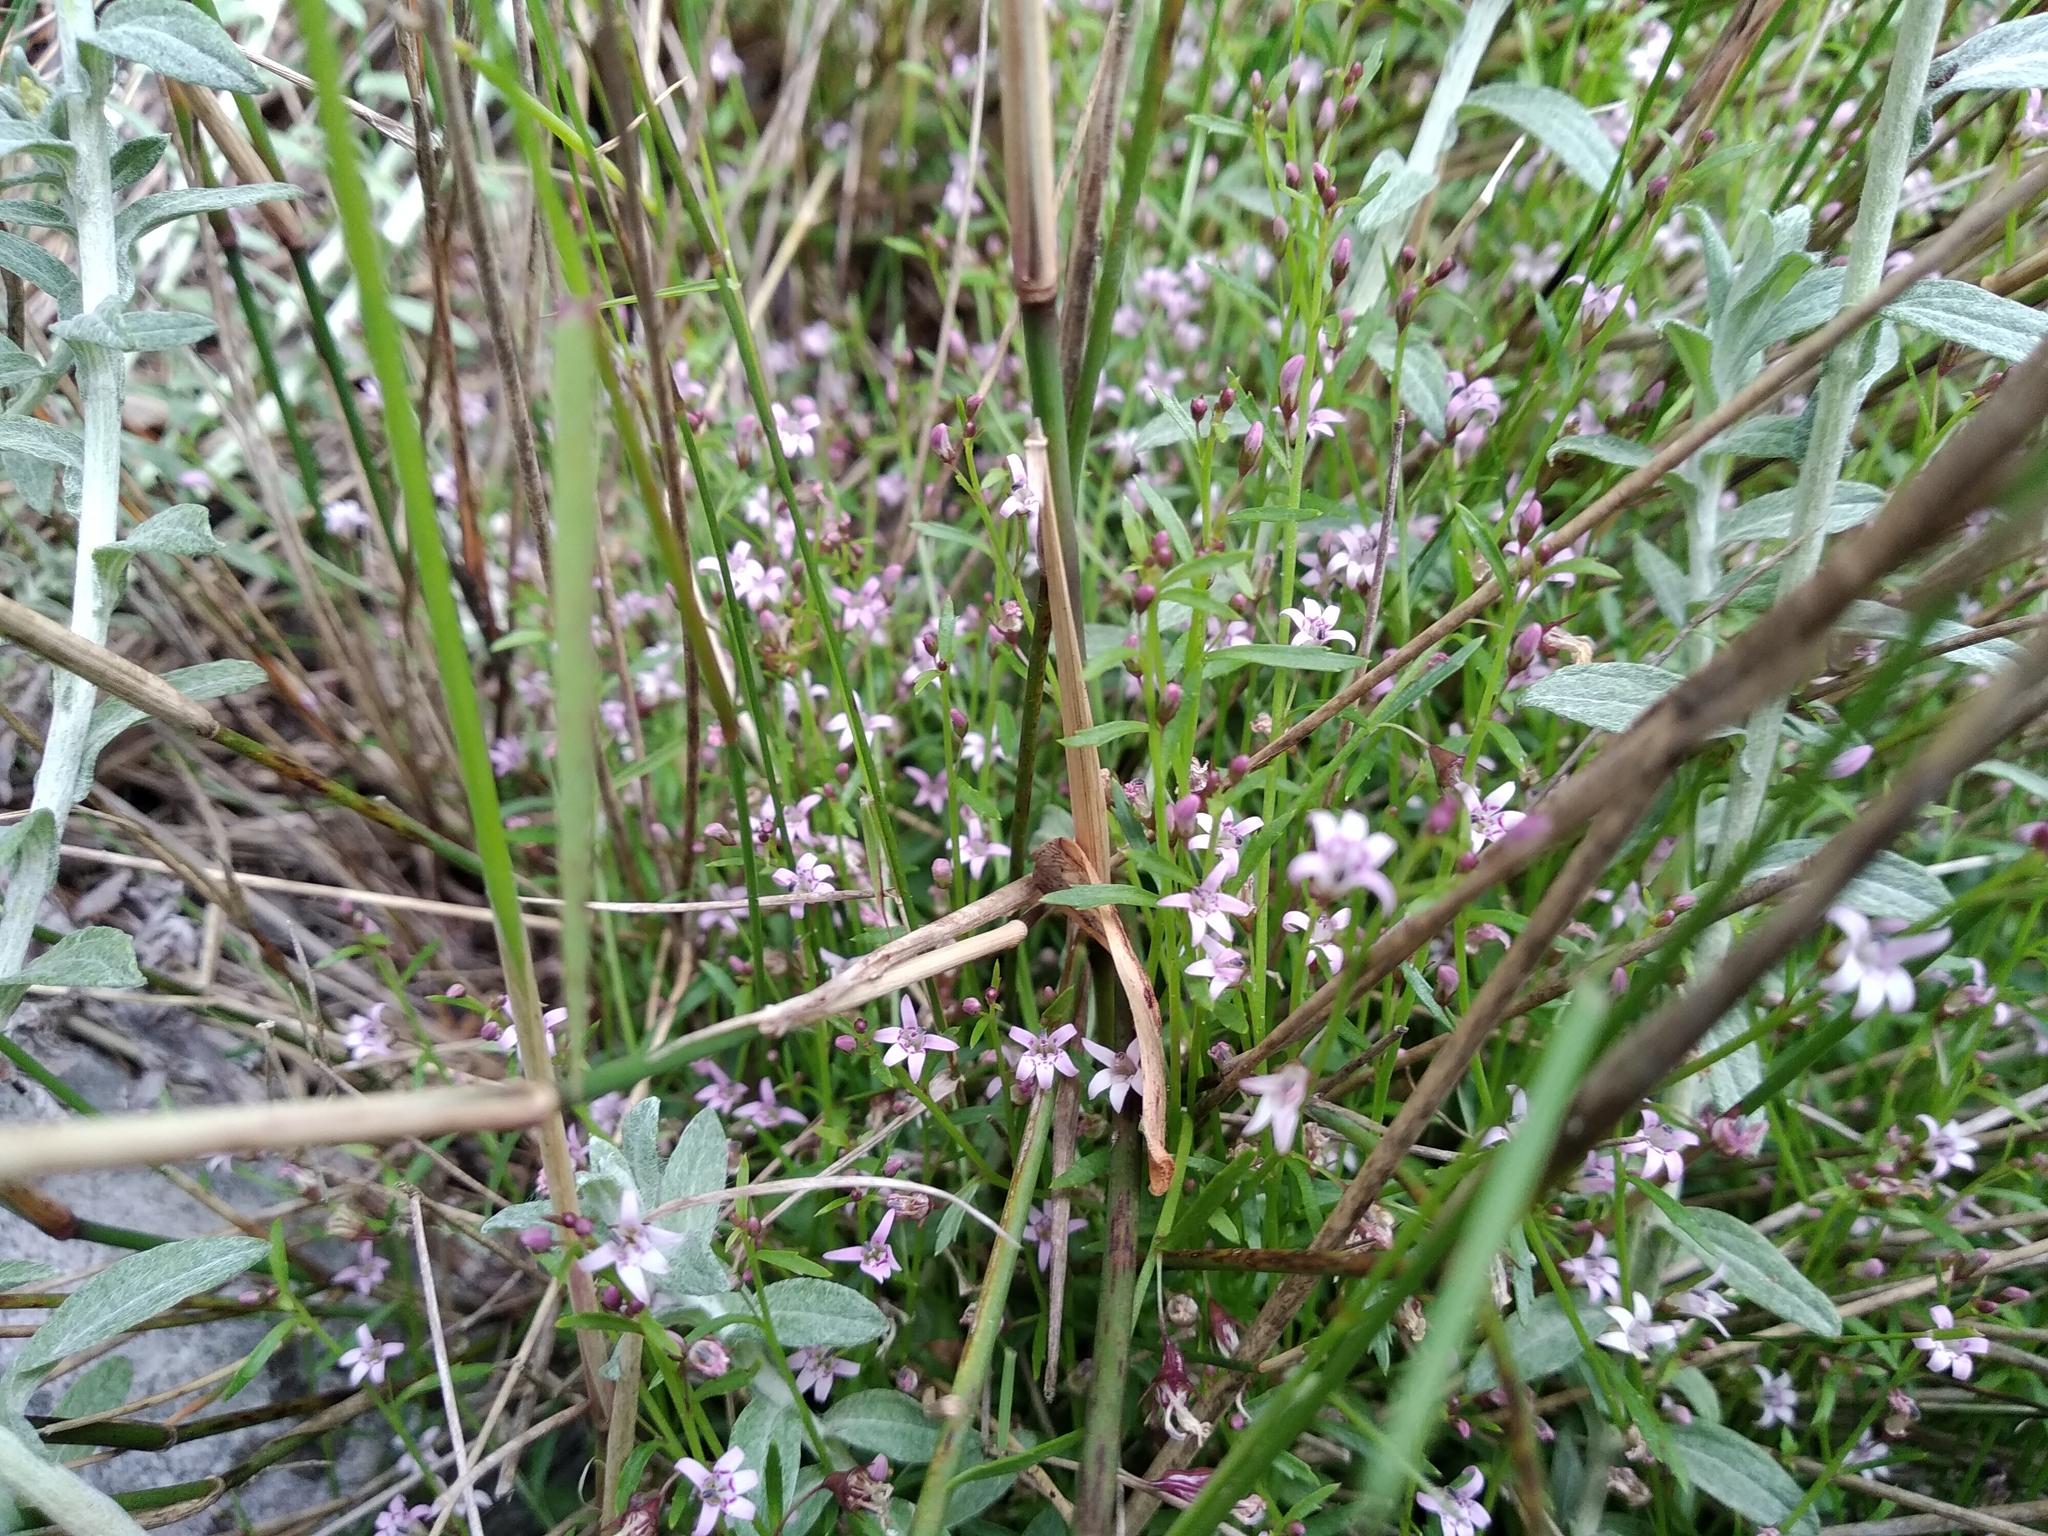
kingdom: Plantae
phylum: Tracheophyta
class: Magnoliopsida
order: Asterales
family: Campanulaceae
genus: Lobelia
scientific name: Lobelia eckloniana
